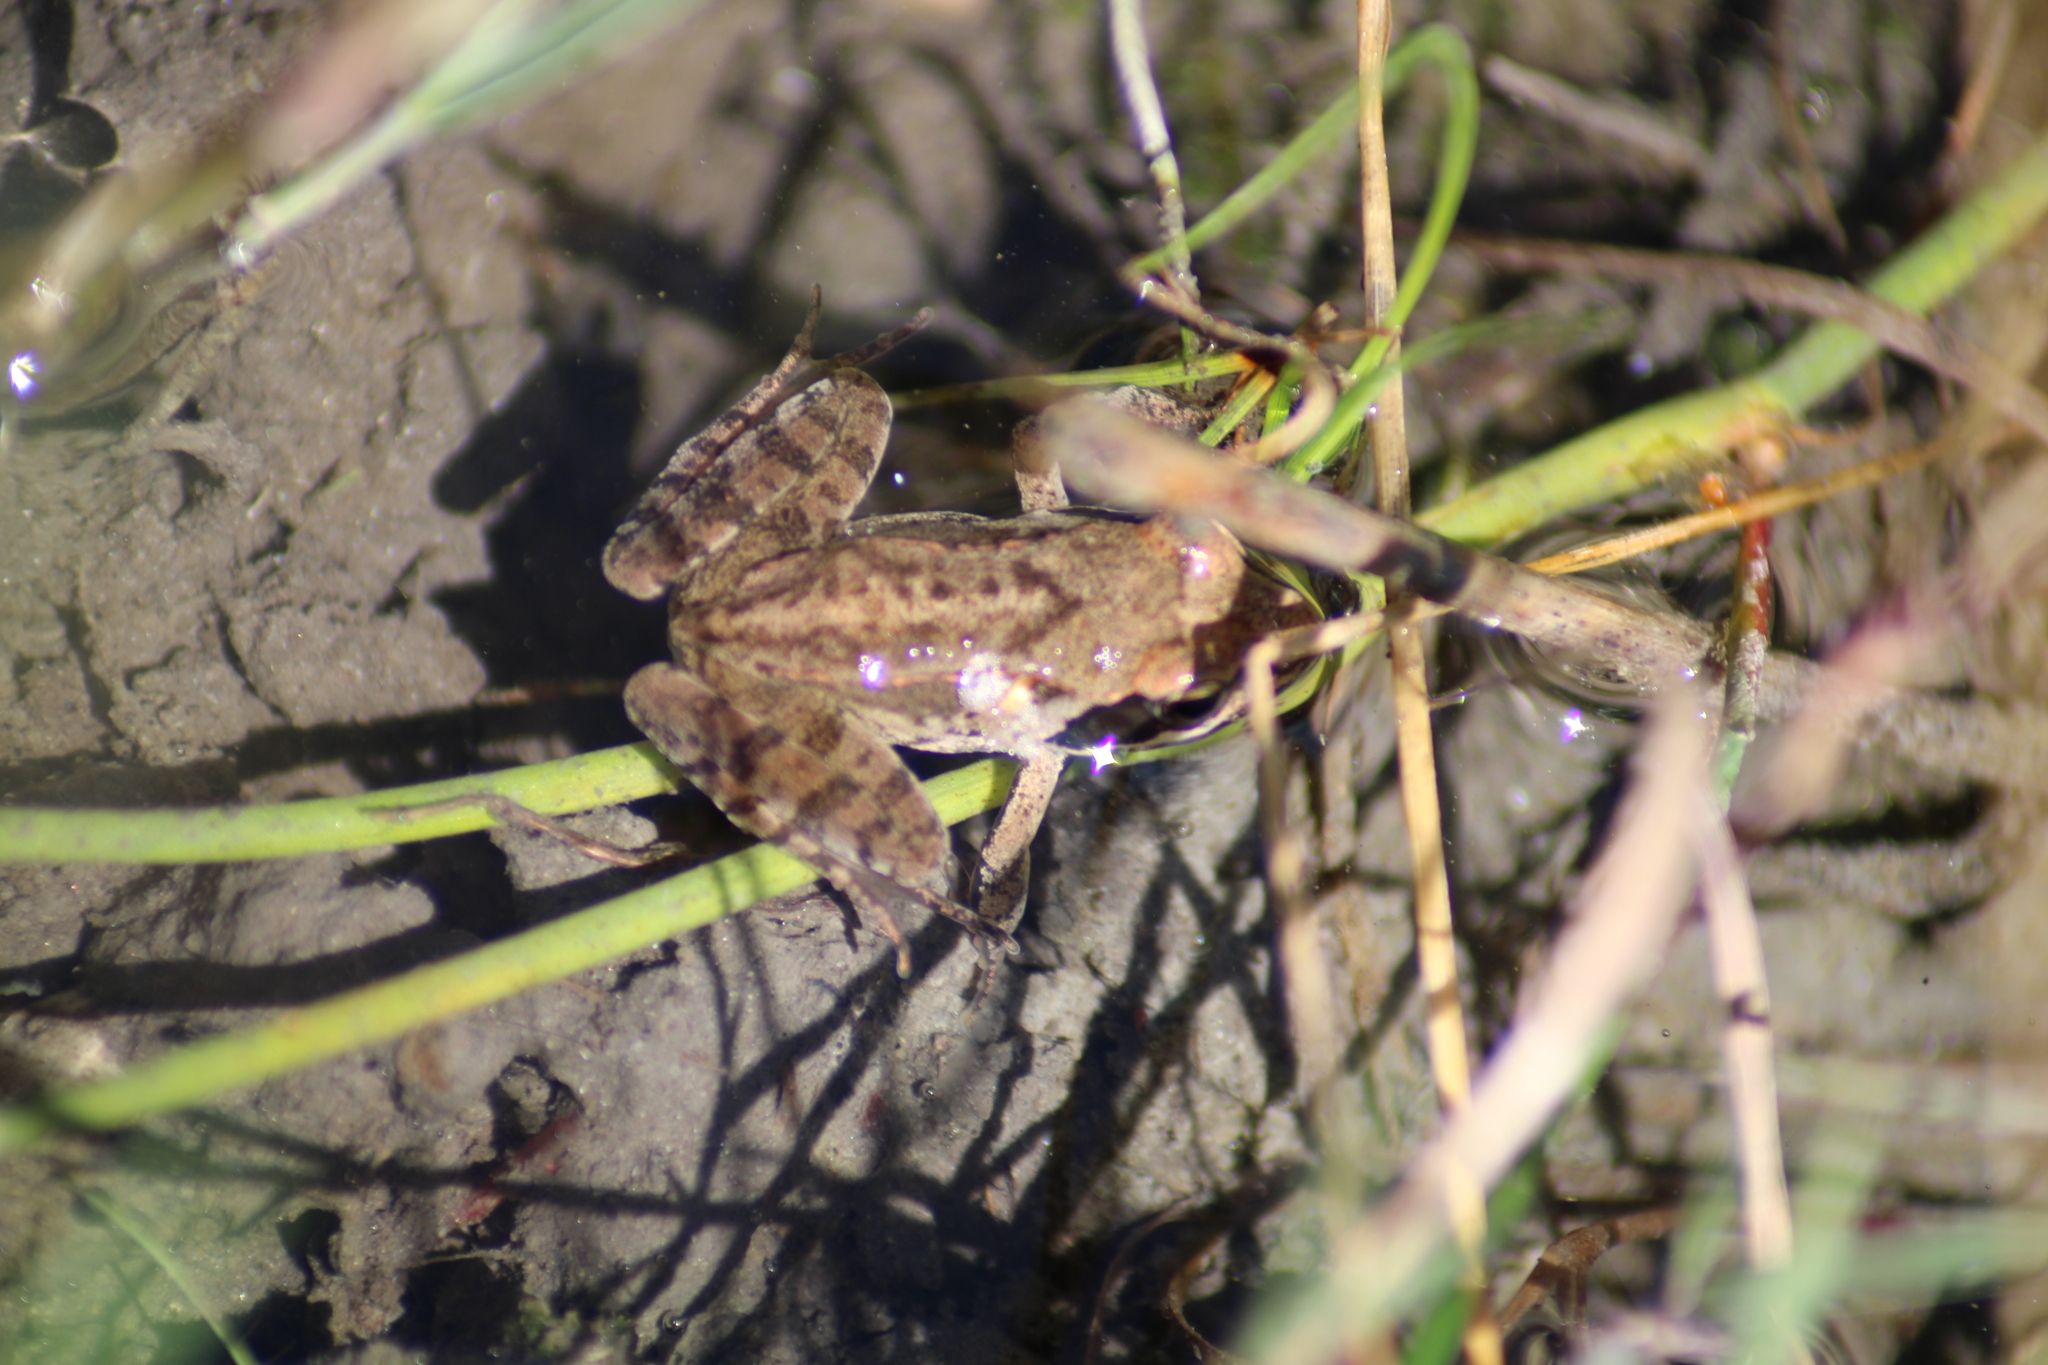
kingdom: Animalia
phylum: Chordata
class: Amphibia
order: Anura
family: Ranidae
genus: Rana
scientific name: Rana dalmatina
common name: Agile frog
